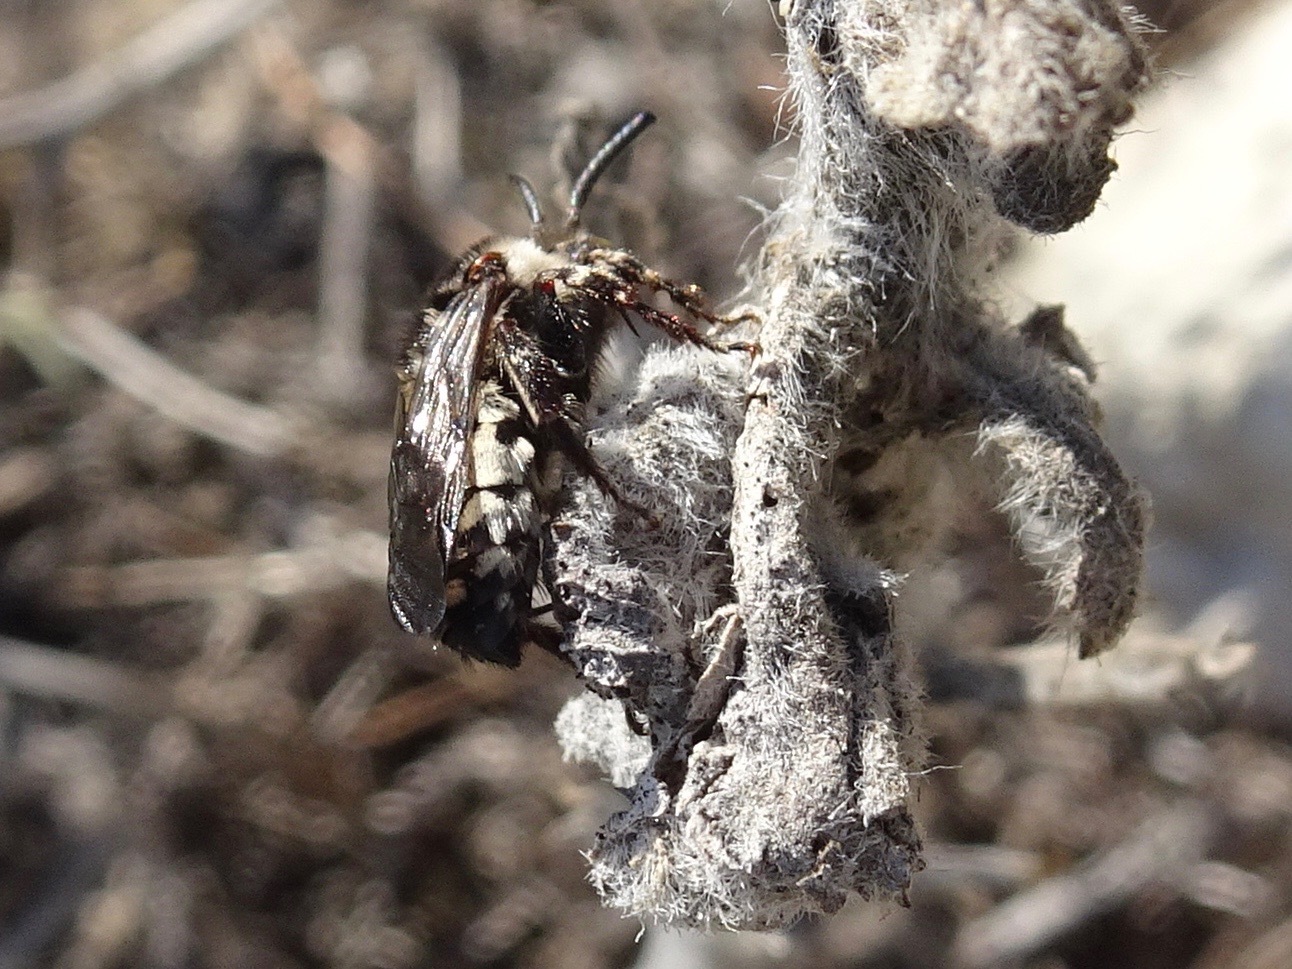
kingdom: Animalia
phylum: Arthropoda
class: Insecta
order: Hymenoptera
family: Apidae
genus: Brachymelecta
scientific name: Brachymelecta californica
